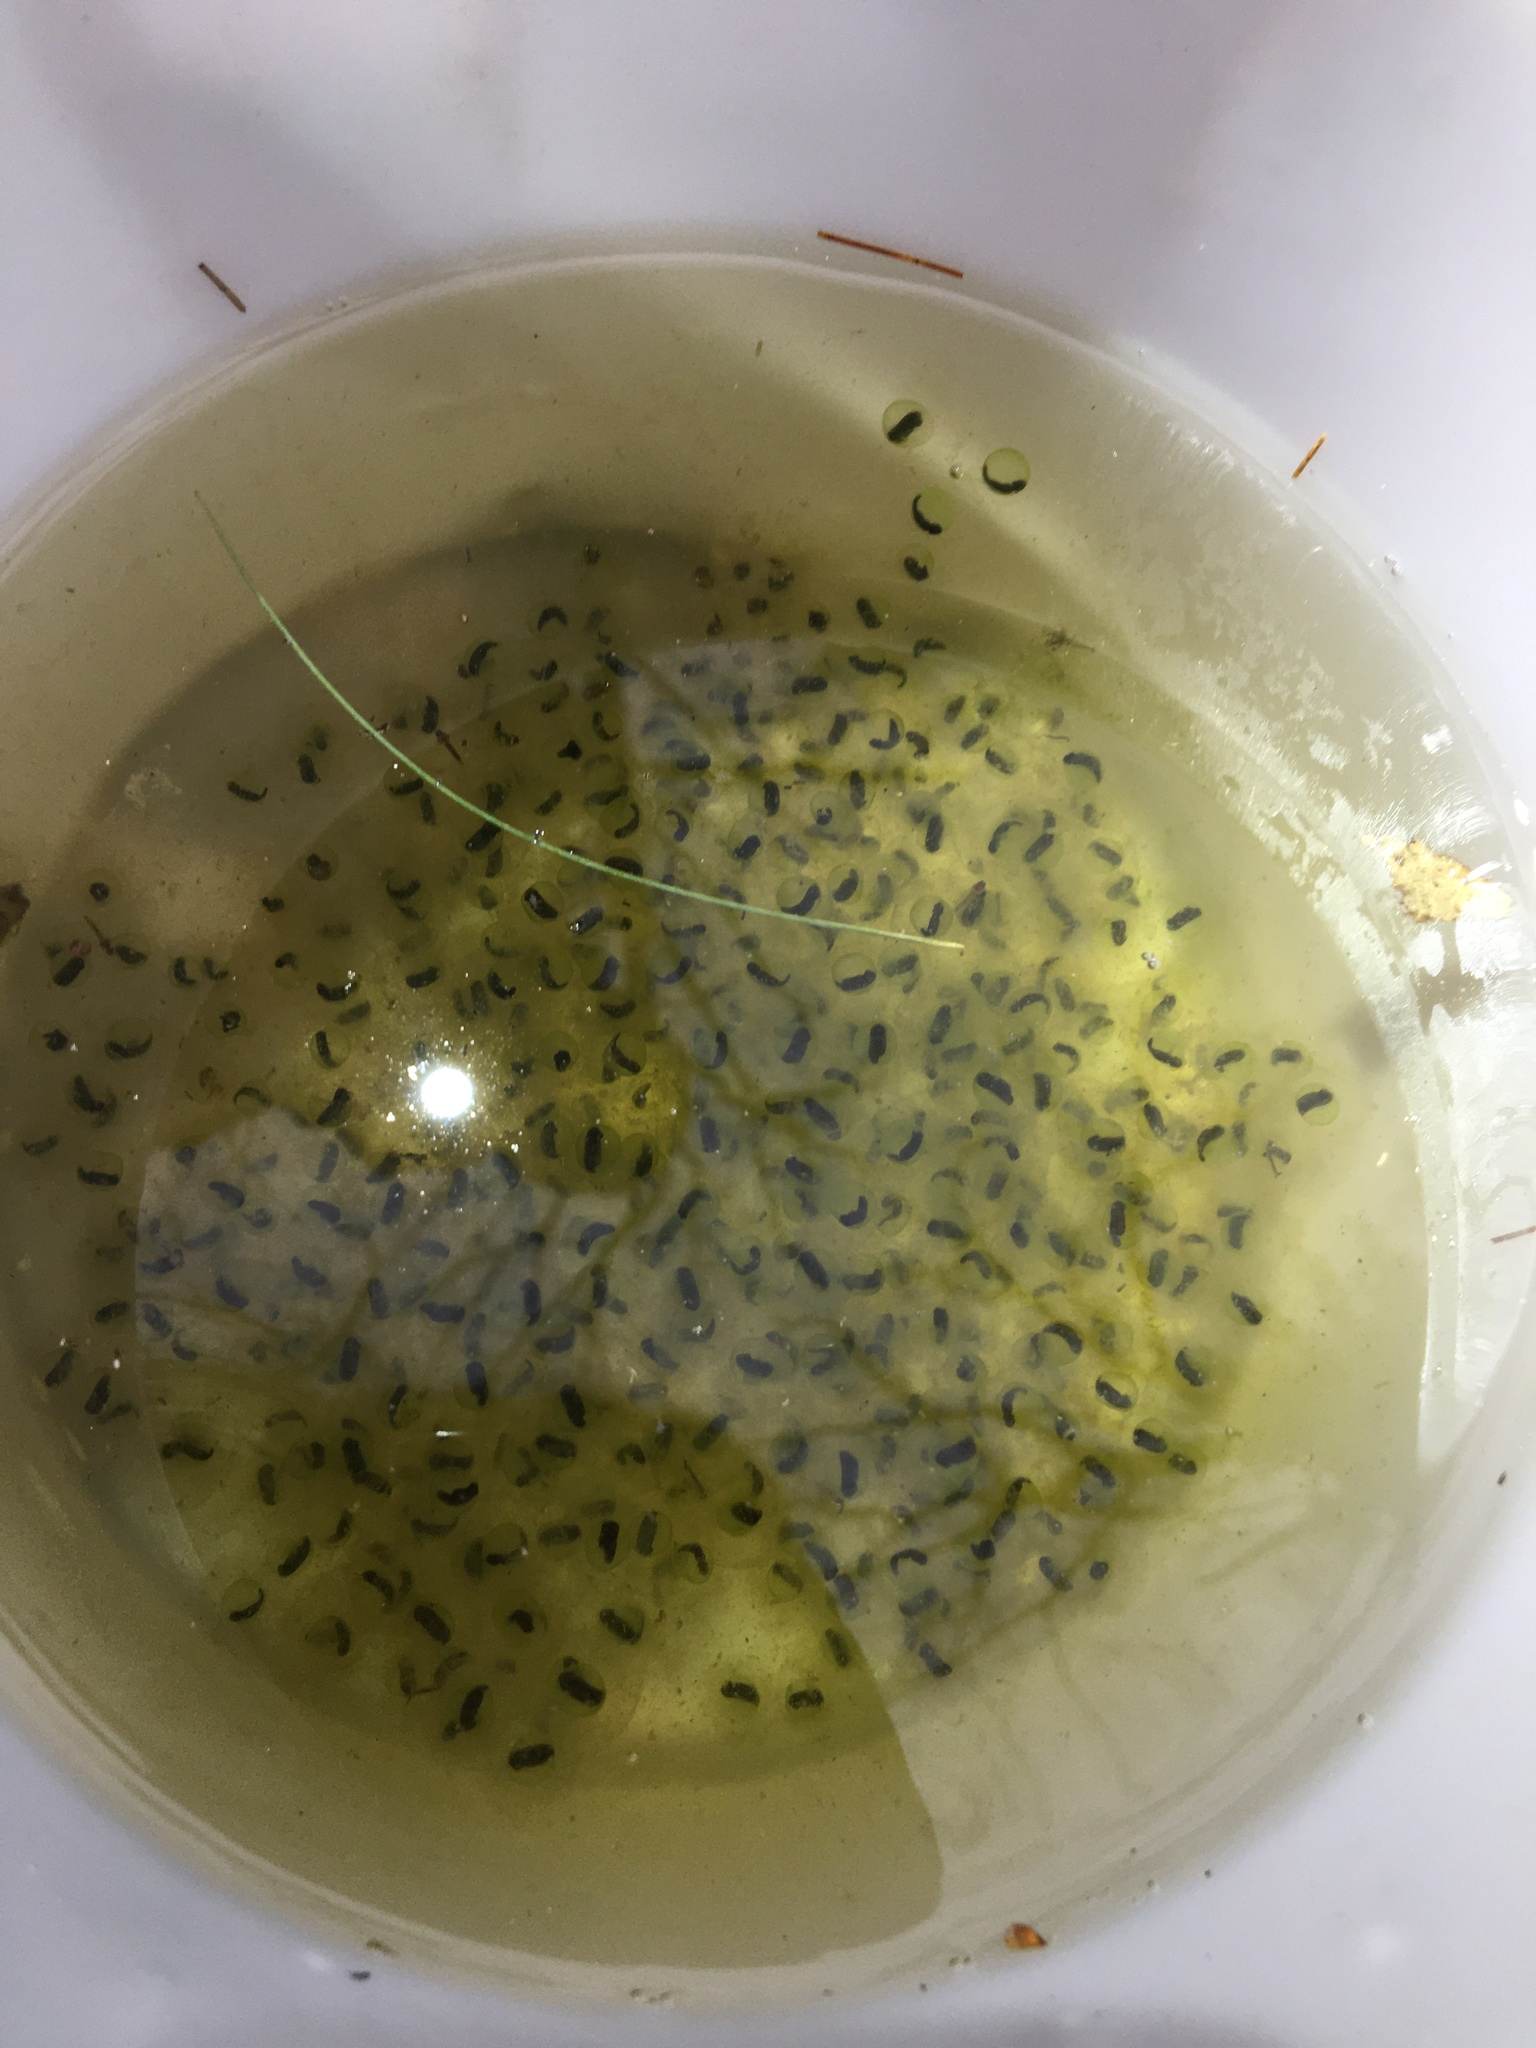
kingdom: Animalia
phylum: Chordata
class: Amphibia
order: Anura
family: Ranidae
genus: Lithobates
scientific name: Lithobates sylvaticus
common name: Wood frog
